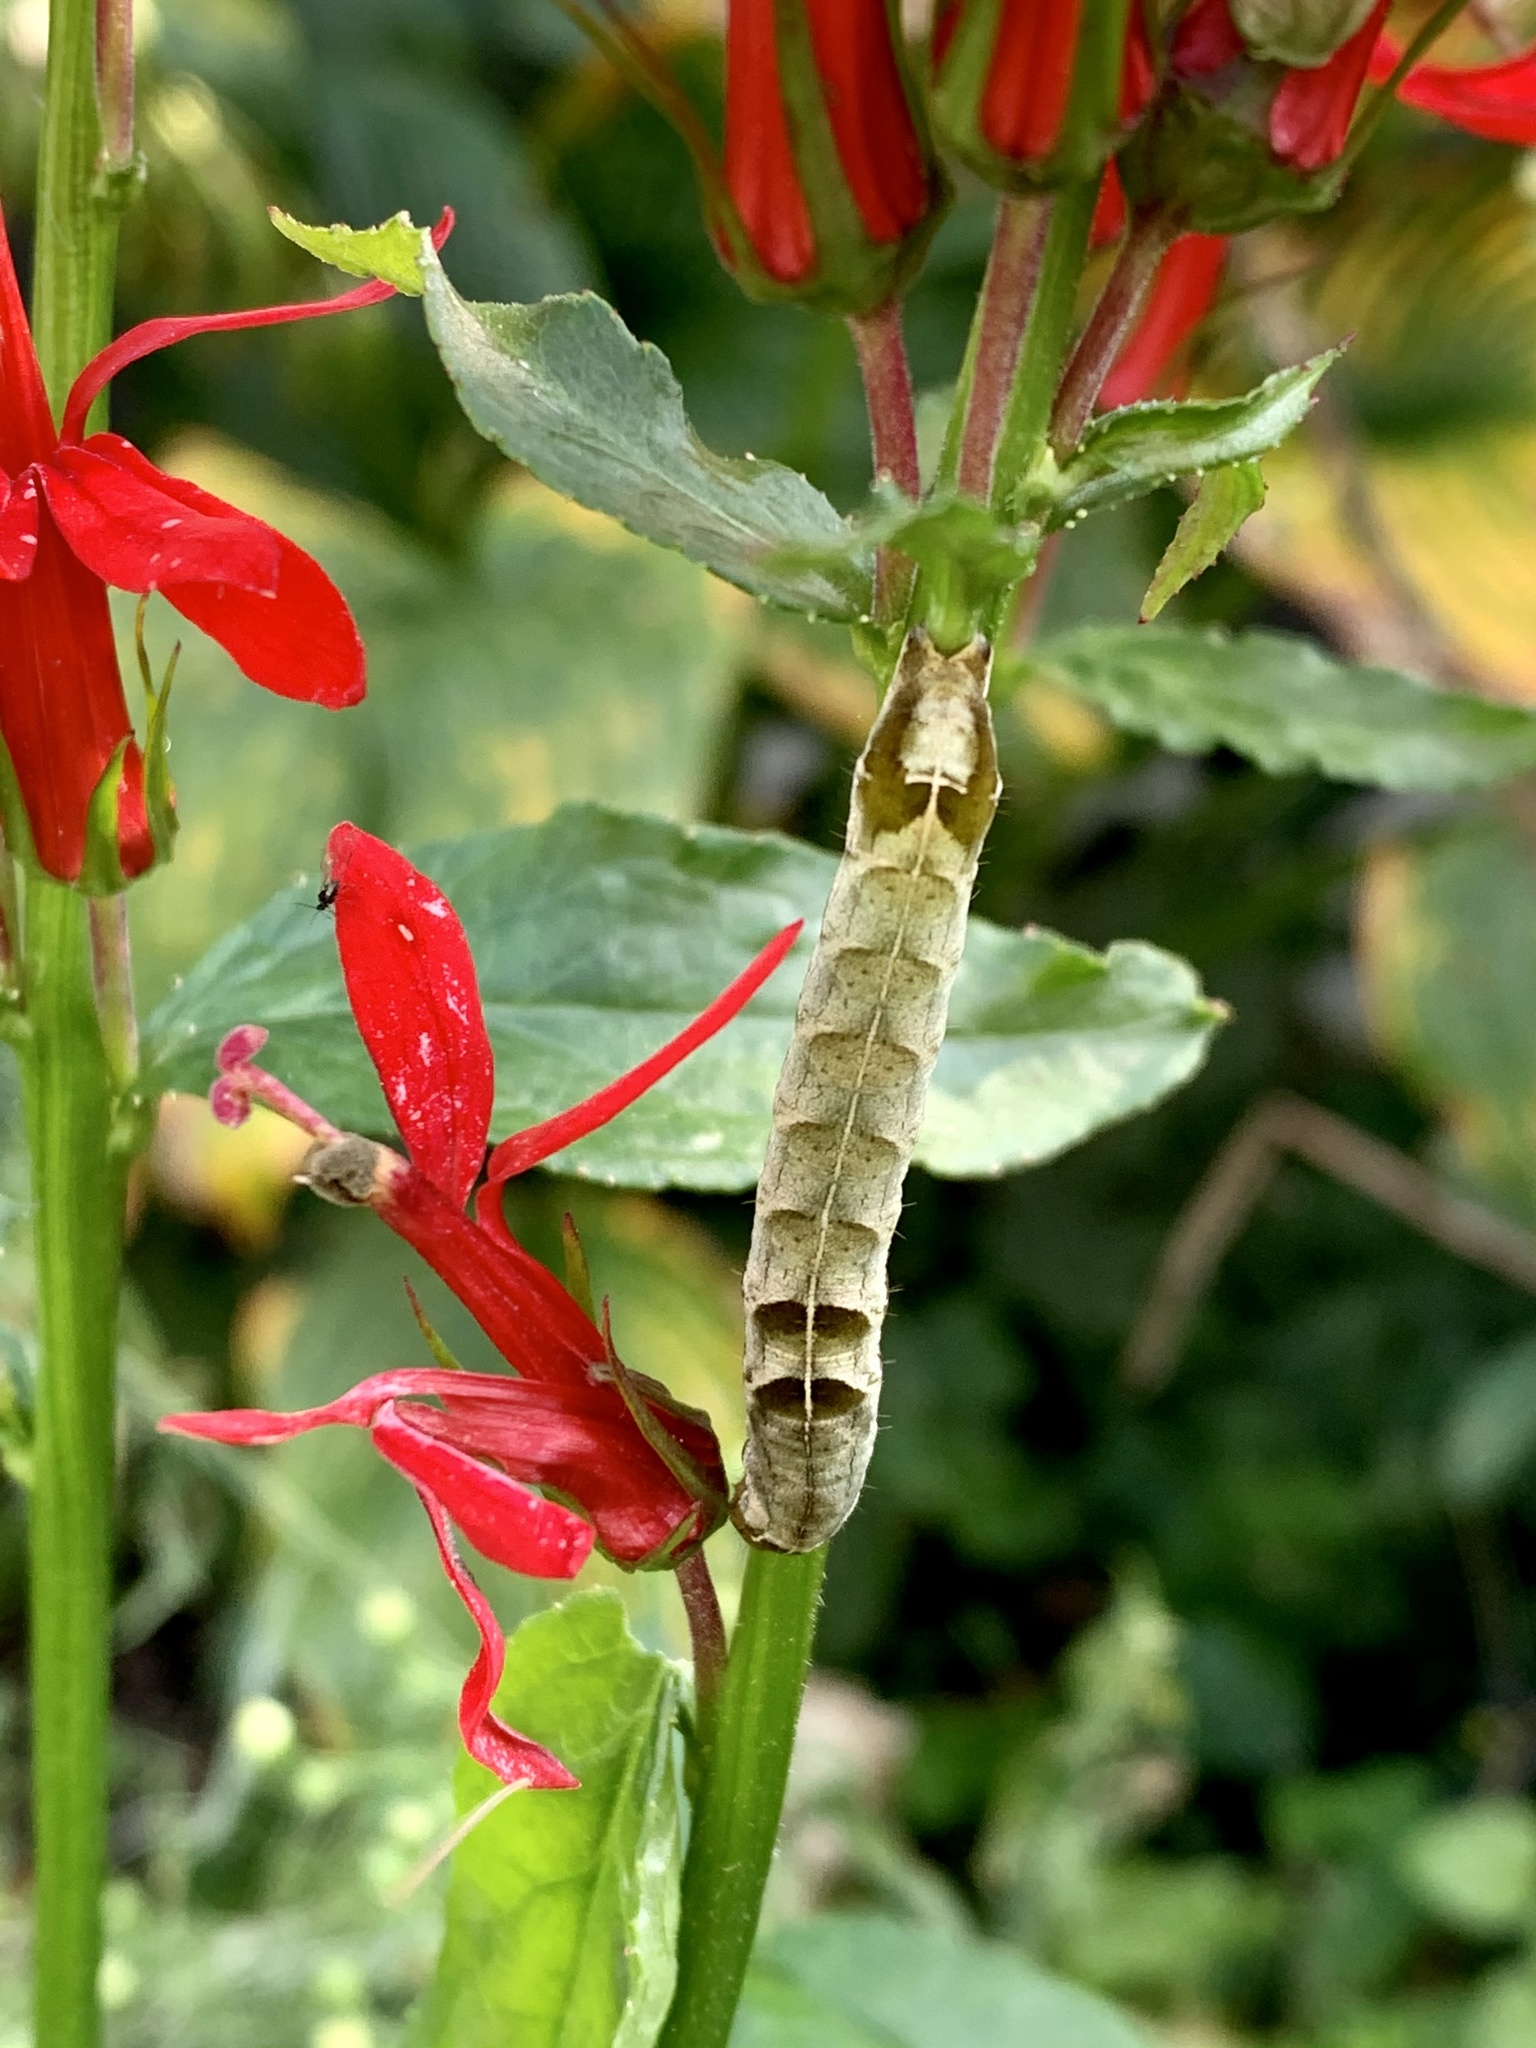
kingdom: Animalia
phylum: Arthropoda
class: Insecta
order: Lepidoptera
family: Noctuidae
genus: Melanchra
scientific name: Melanchra adjuncta
